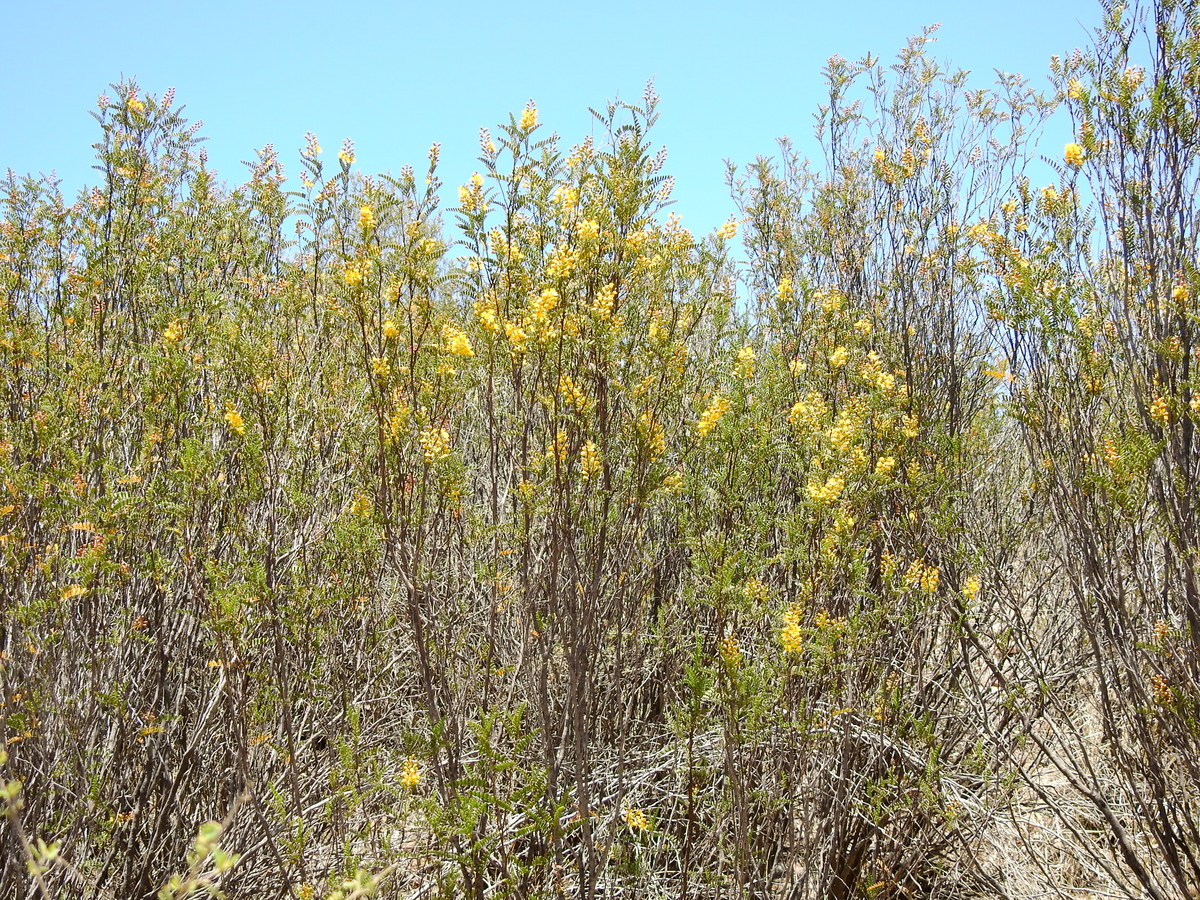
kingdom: Plantae
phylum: Tracheophyta
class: Magnoliopsida
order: Fabales
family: Fabaceae
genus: Zuccagnia
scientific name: Zuccagnia punctata
